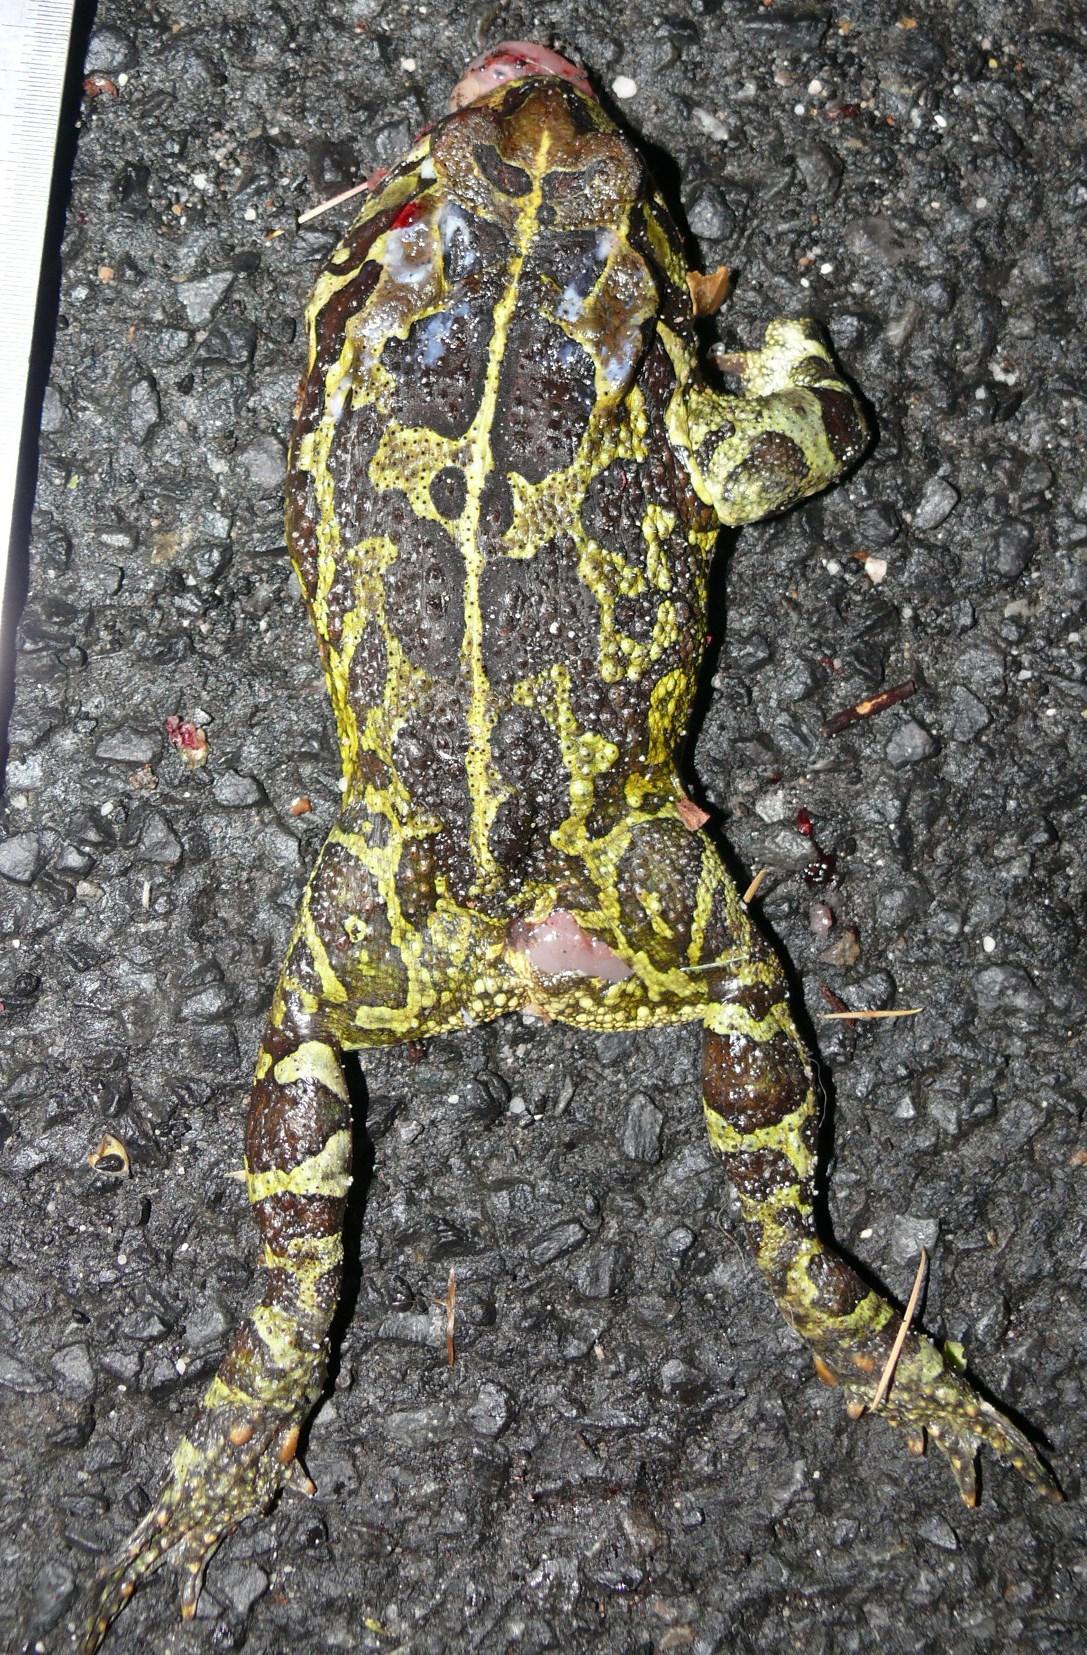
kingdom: Animalia
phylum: Chordata
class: Amphibia
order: Anura
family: Bufonidae
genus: Sclerophrys
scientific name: Sclerophrys pantherina
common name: Panther toad
